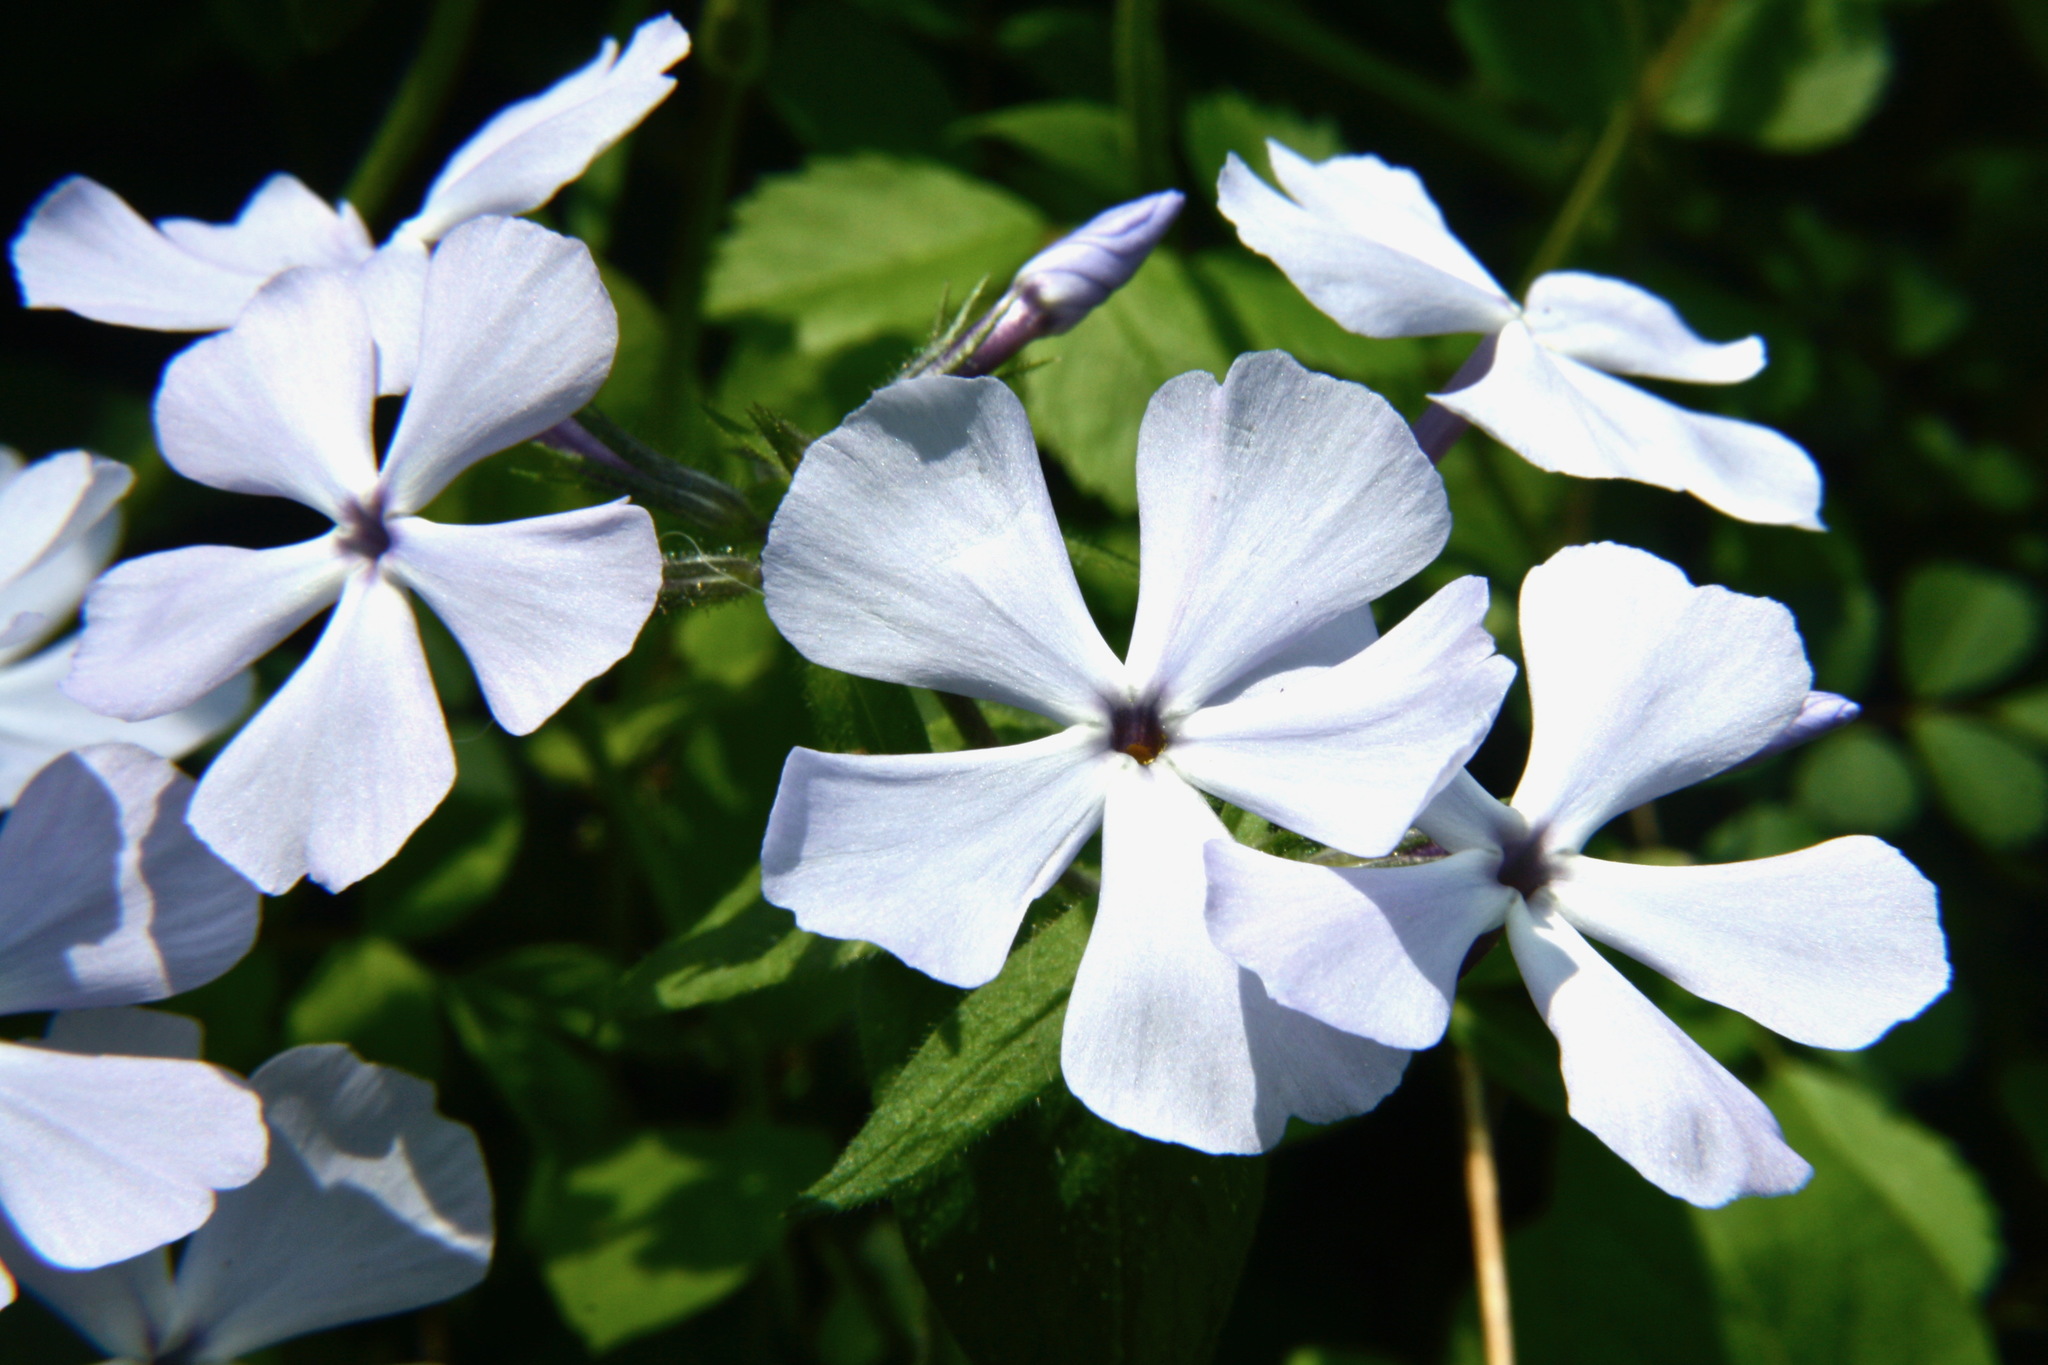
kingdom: Plantae
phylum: Tracheophyta
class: Magnoliopsida
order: Ericales
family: Polemoniaceae
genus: Phlox
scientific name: Phlox divaricata
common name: Blue phlox
